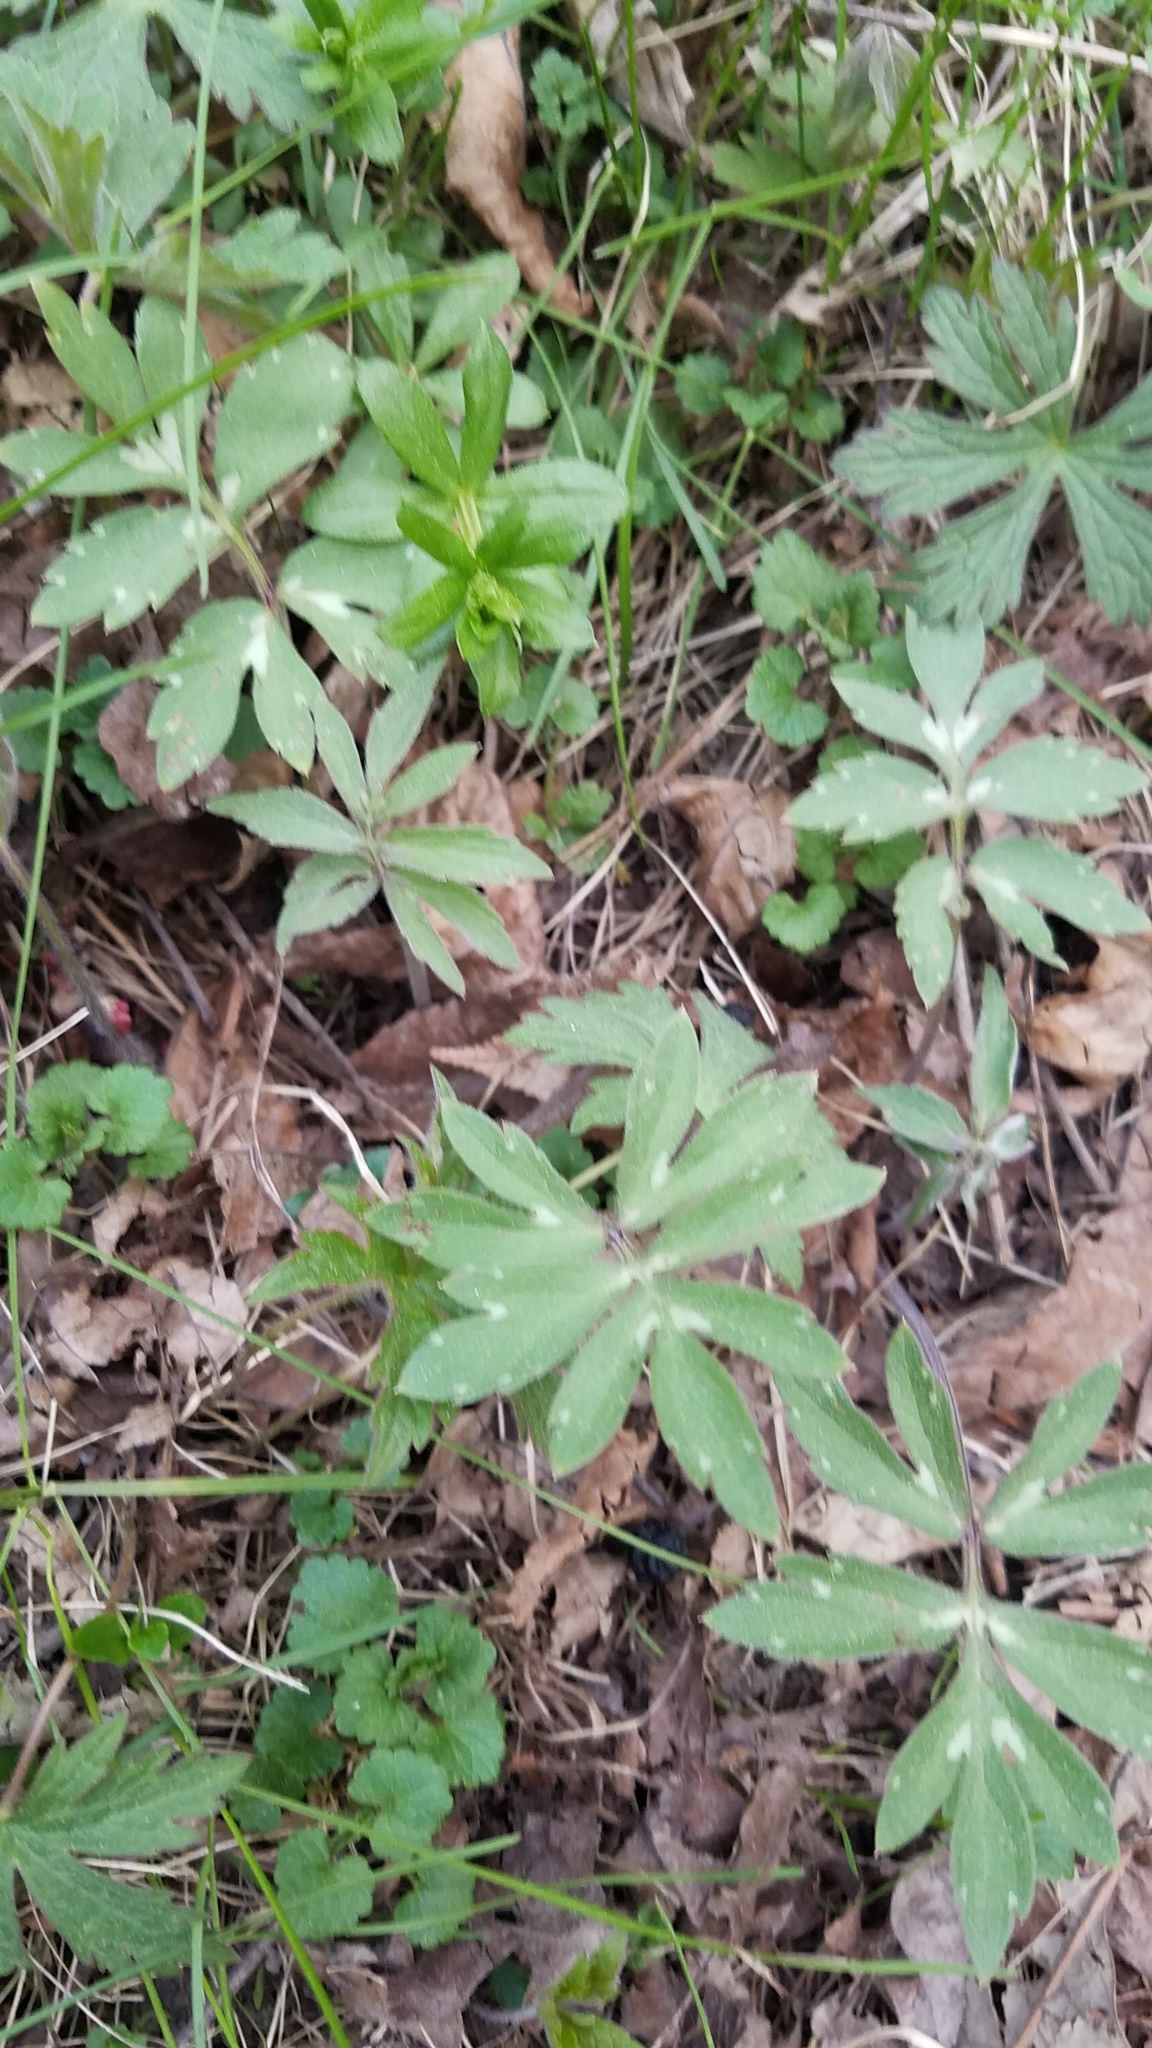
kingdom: Plantae
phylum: Tracheophyta
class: Magnoliopsida
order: Boraginales
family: Hydrophyllaceae
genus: Hydrophyllum
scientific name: Hydrophyllum virginianum
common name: Virginia waterleaf
